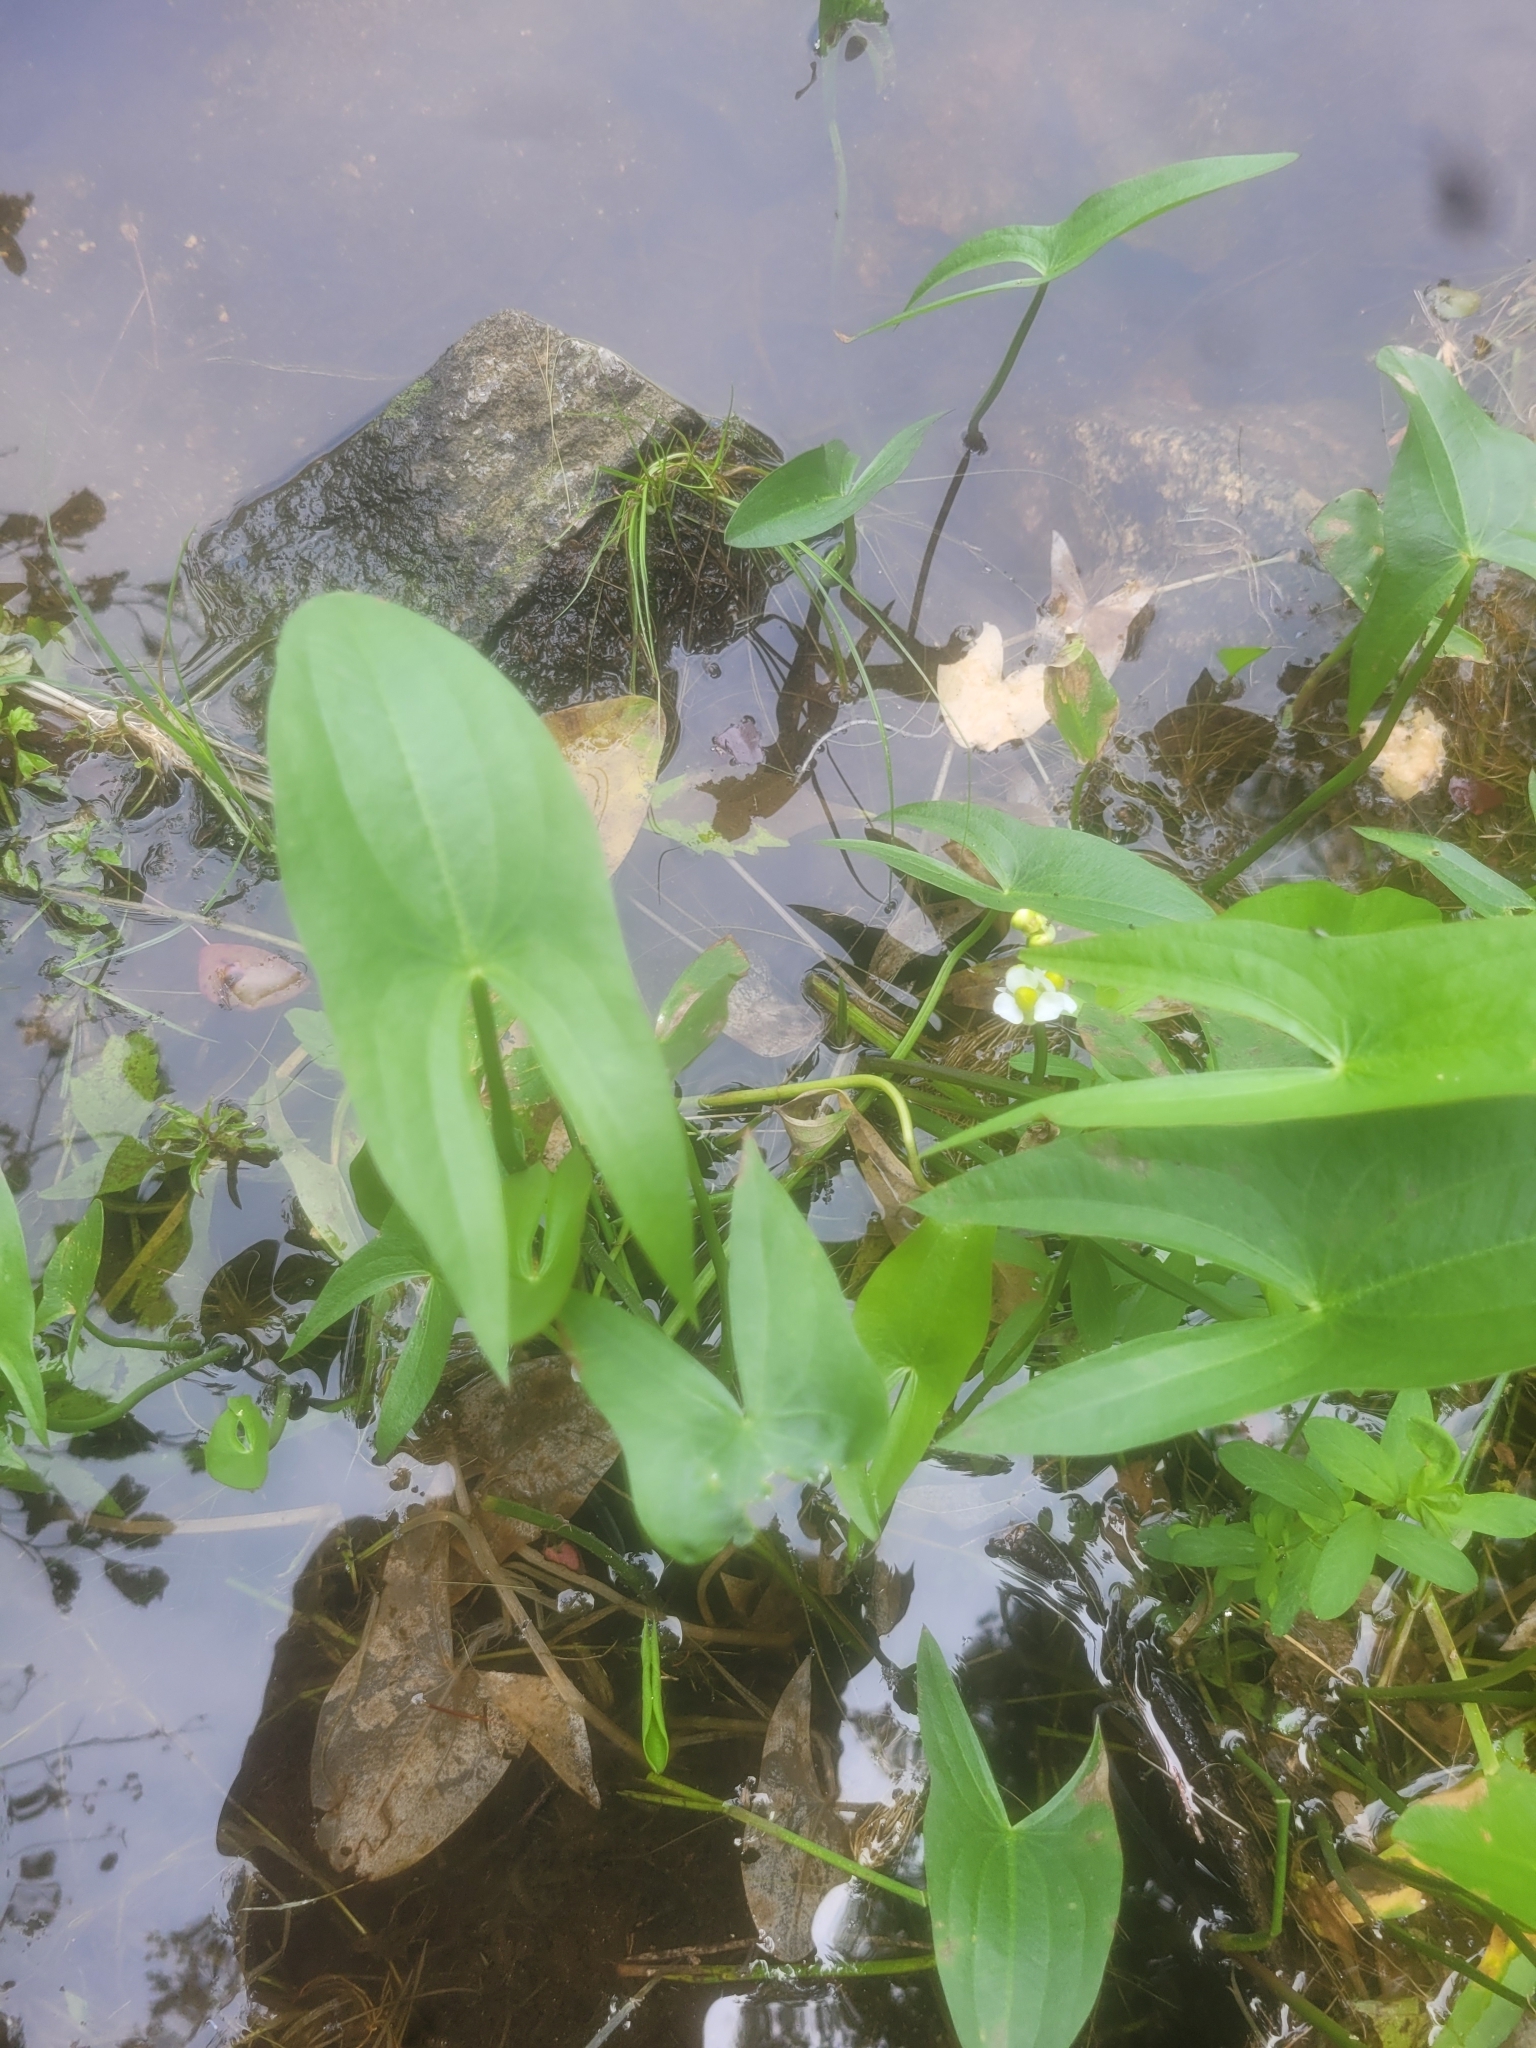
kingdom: Plantae
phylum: Tracheophyta
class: Liliopsida
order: Alismatales
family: Alismataceae
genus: Sagittaria
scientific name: Sagittaria latifolia
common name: Duck-potato
